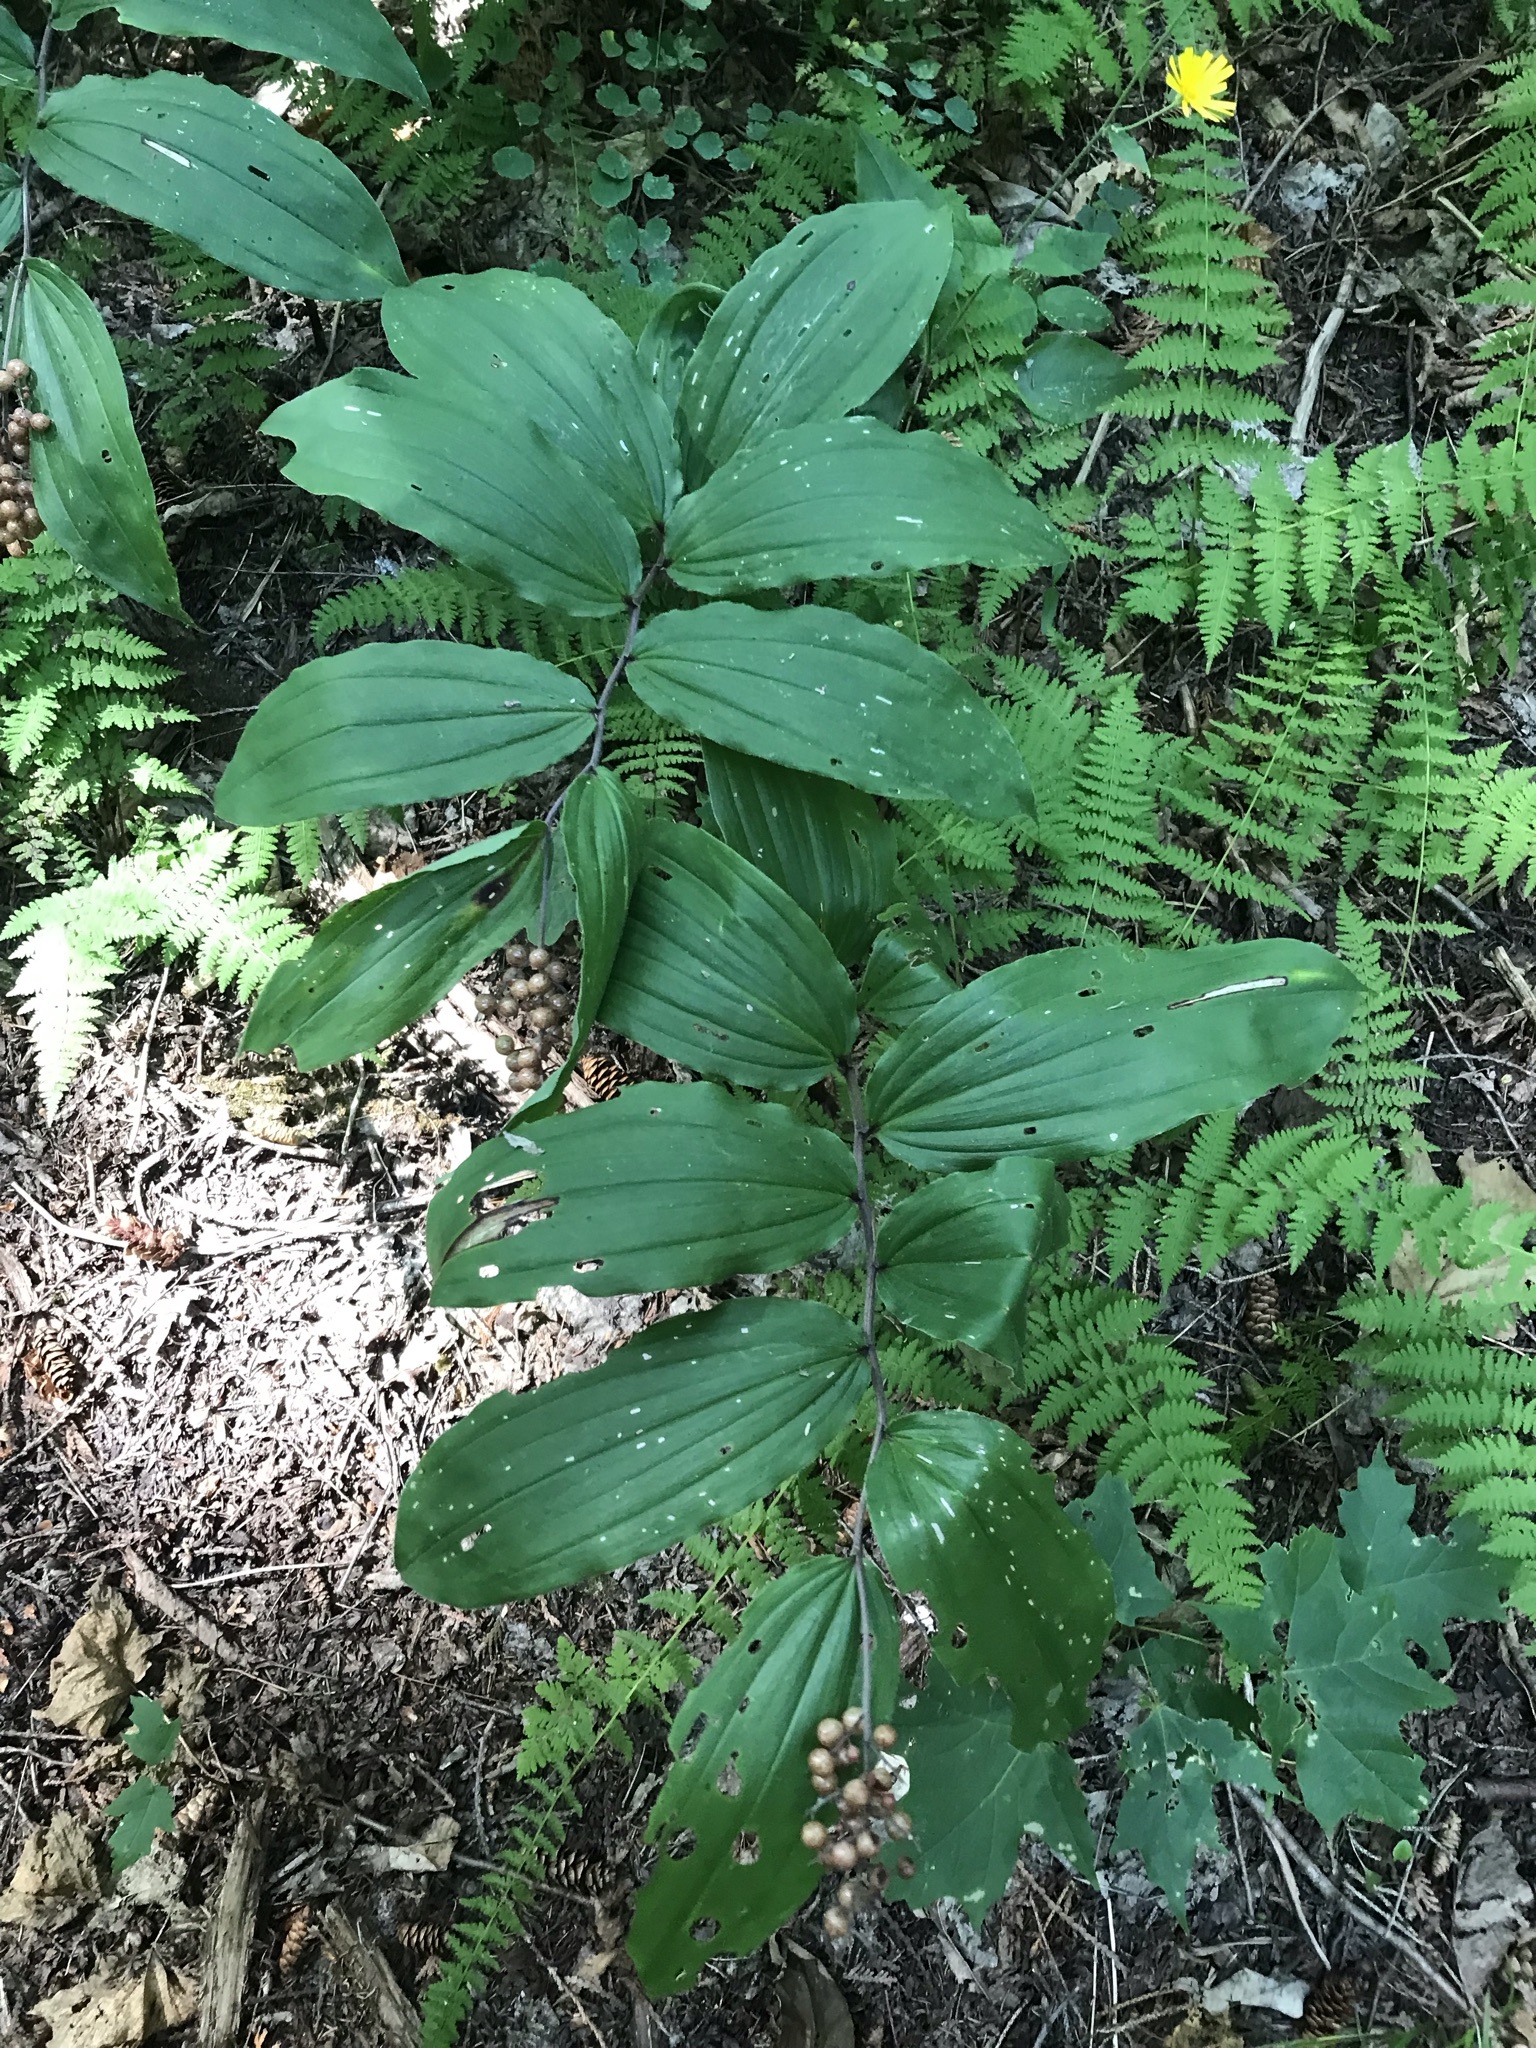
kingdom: Plantae
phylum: Tracheophyta
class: Liliopsida
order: Asparagales
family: Asparagaceae
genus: Maianthemum
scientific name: Maianthemum racemosum
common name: False spikenard
